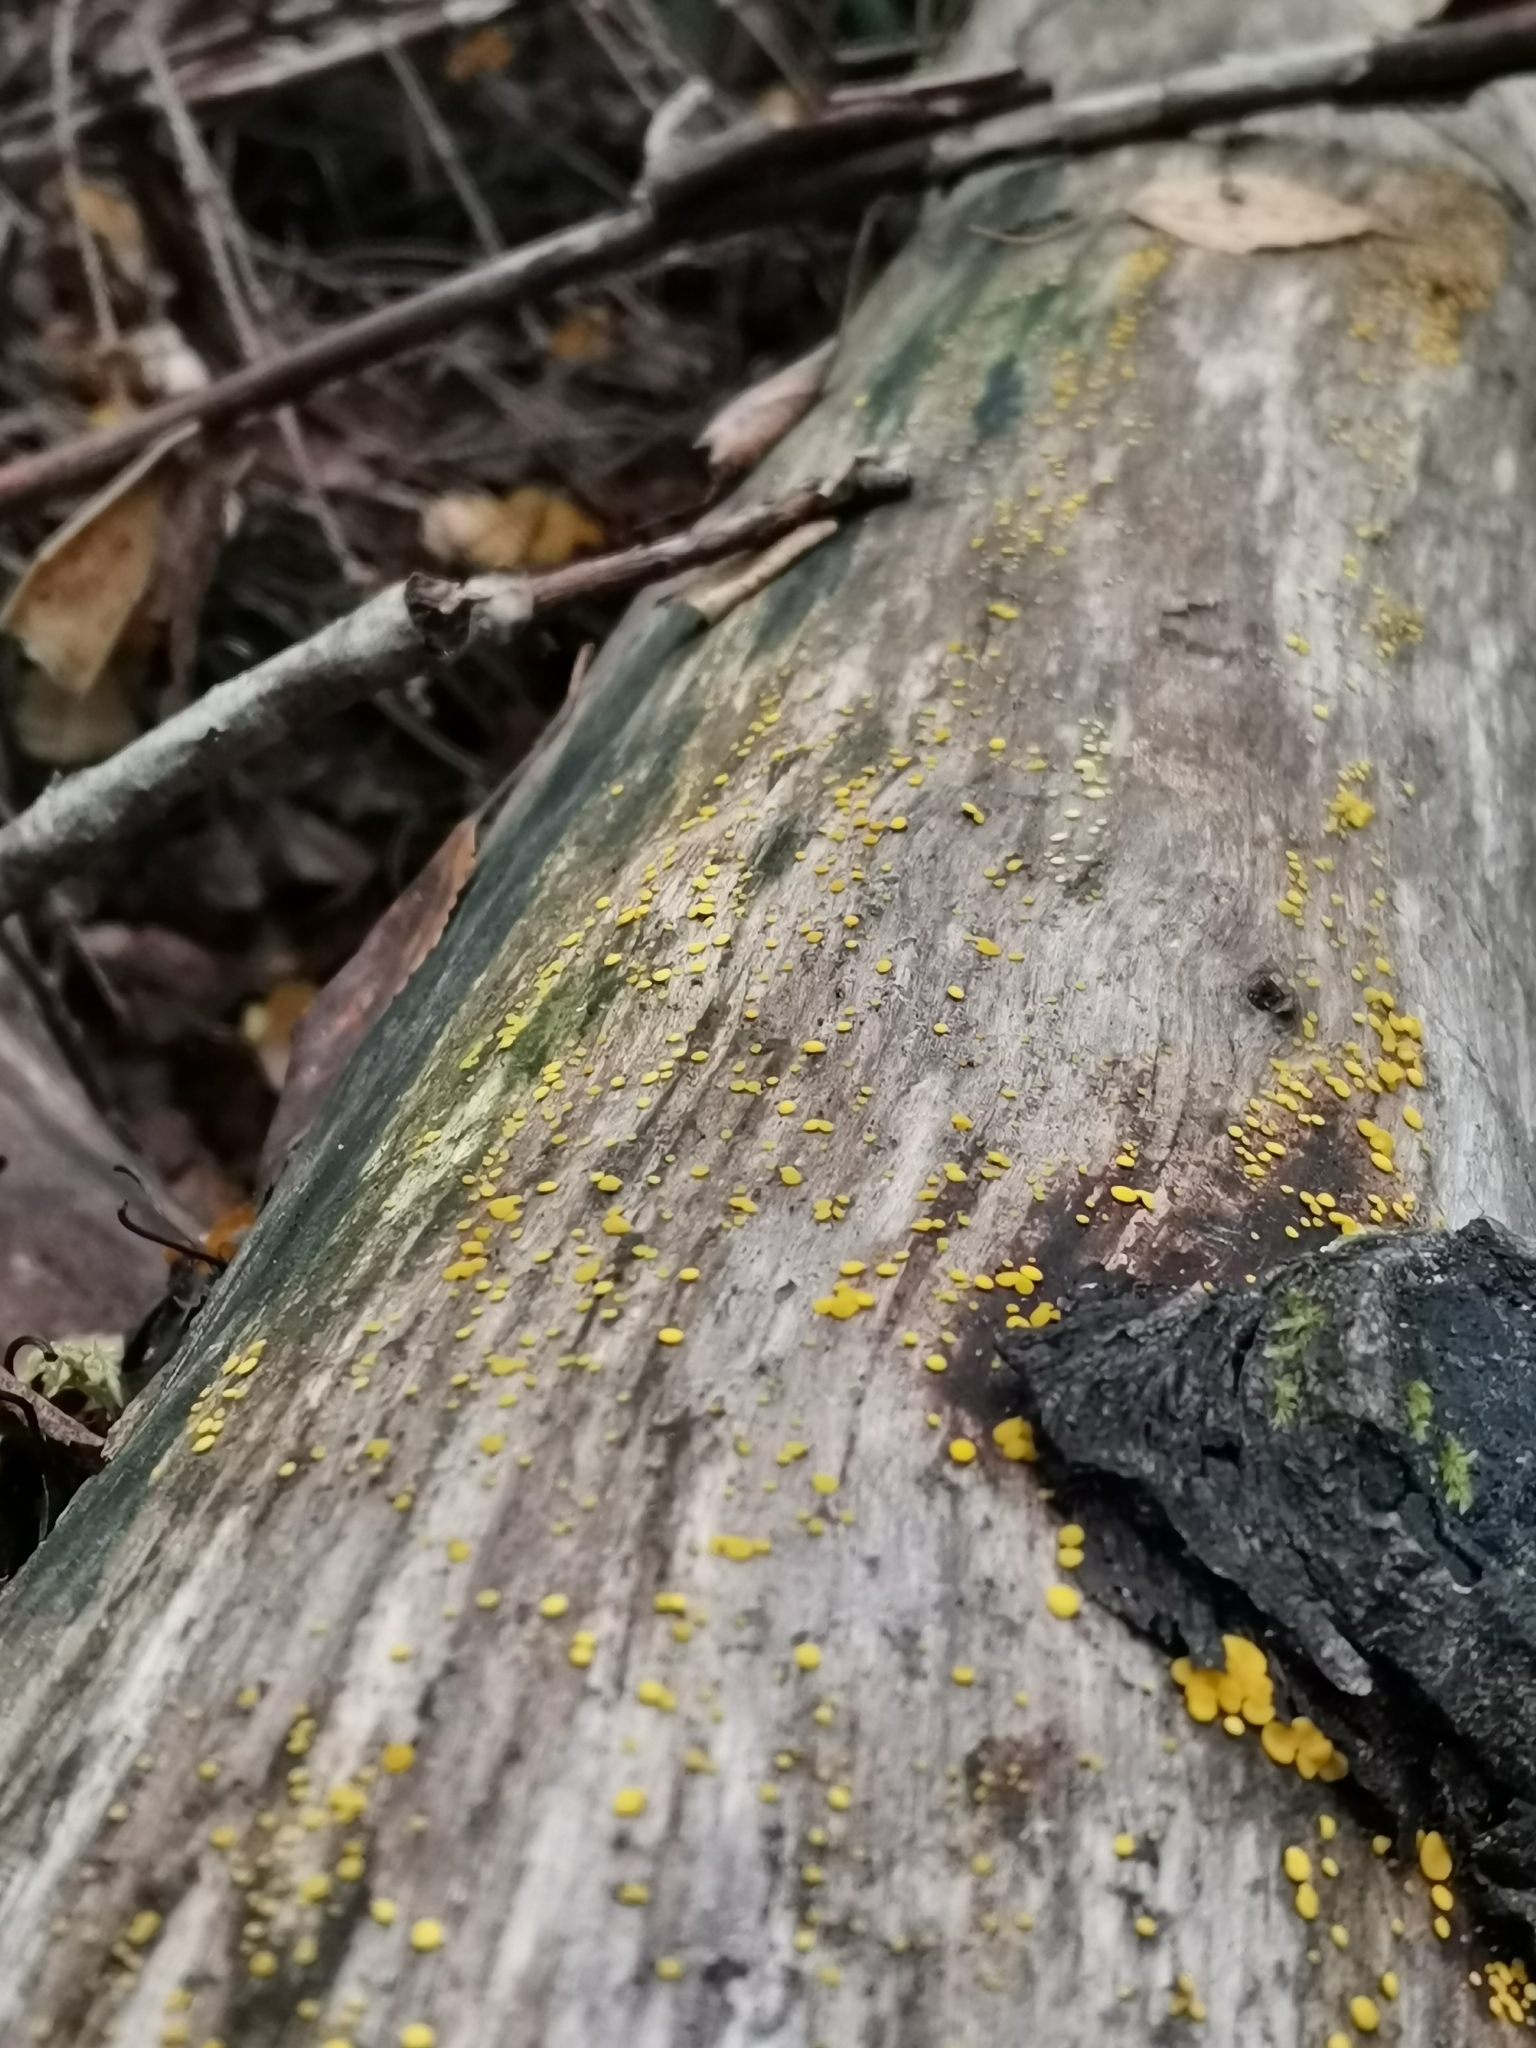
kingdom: Fungi
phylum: Ascomycota
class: Leotiomycetes
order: Helotiales
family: Pezizellaceae
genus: Calycina
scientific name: Calycina citrina
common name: Yellow fairy cups
